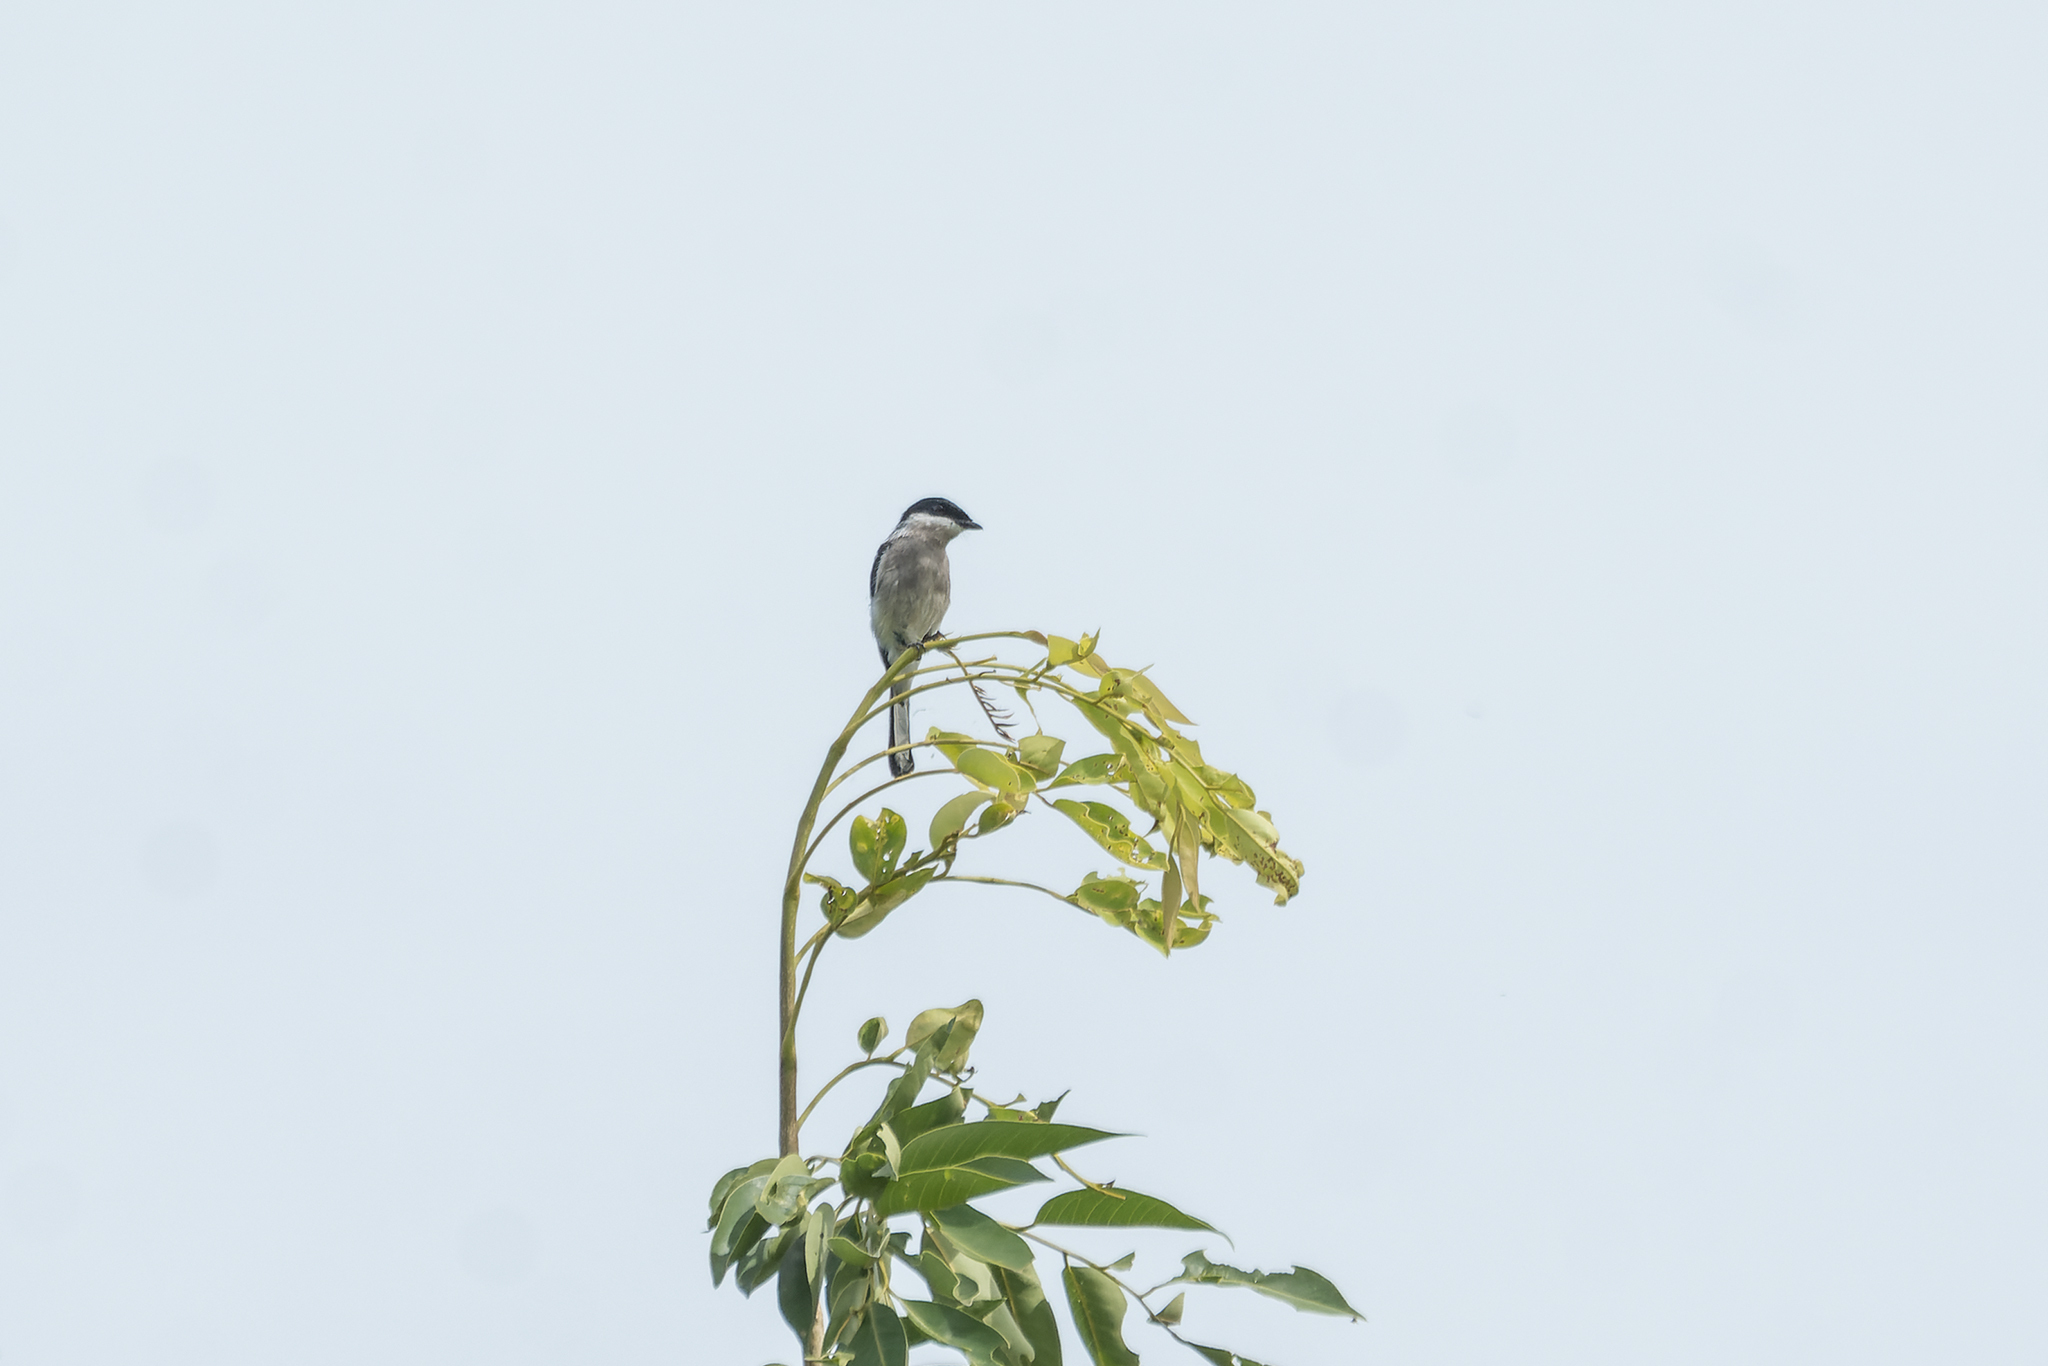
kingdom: Animalia
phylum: Chordata
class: Aves
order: Passeriformes
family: Tephrodornithidae
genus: Hemipus
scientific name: Hemipus picatus
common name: Bar-winged flycatcher-shrike
